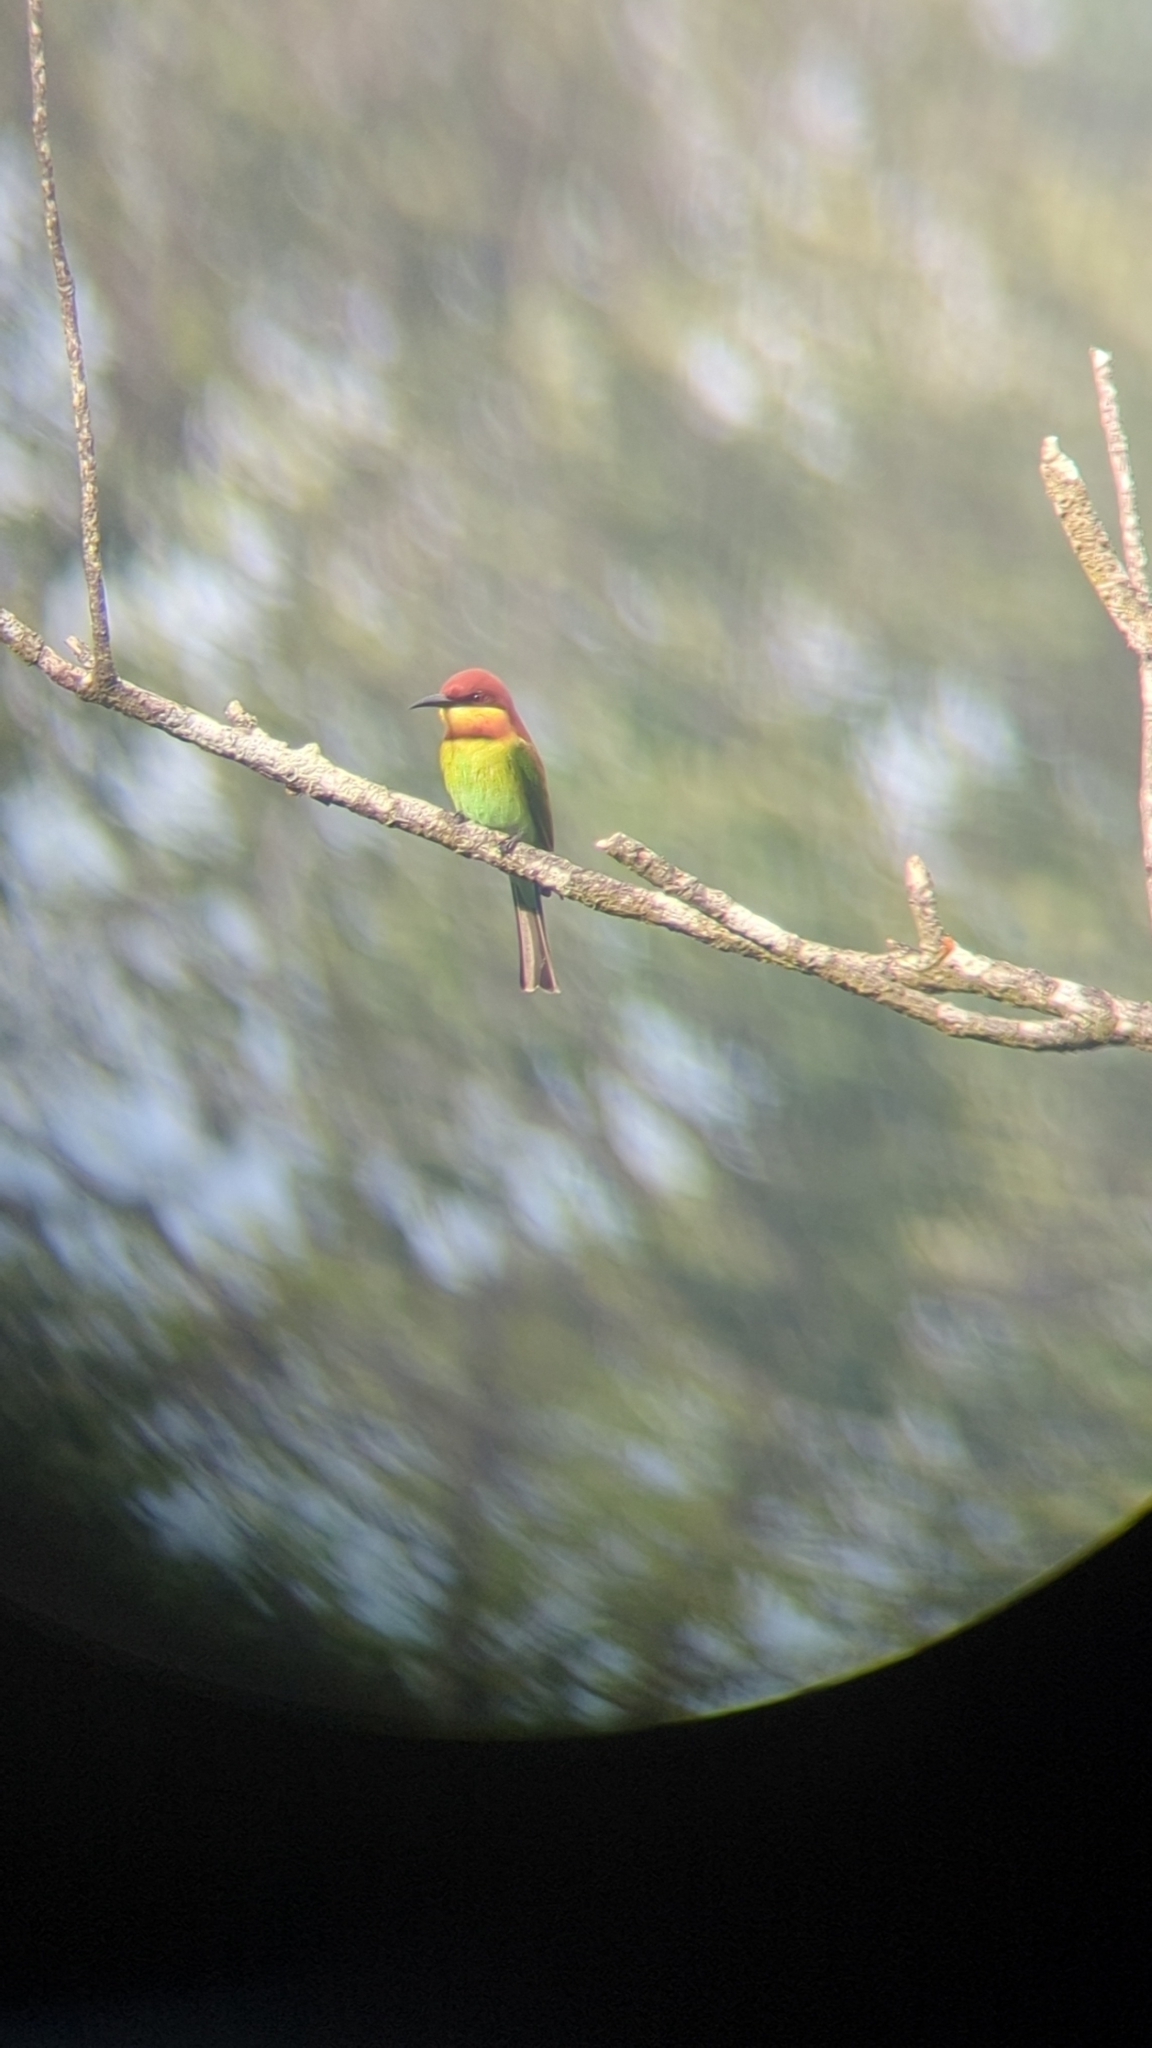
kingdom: Animalia
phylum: Chordata
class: Aves
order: Coraciiformes
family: Meropidae
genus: Merops
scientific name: Merops leschenaulti
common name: Chestnut-headed bee-eater
